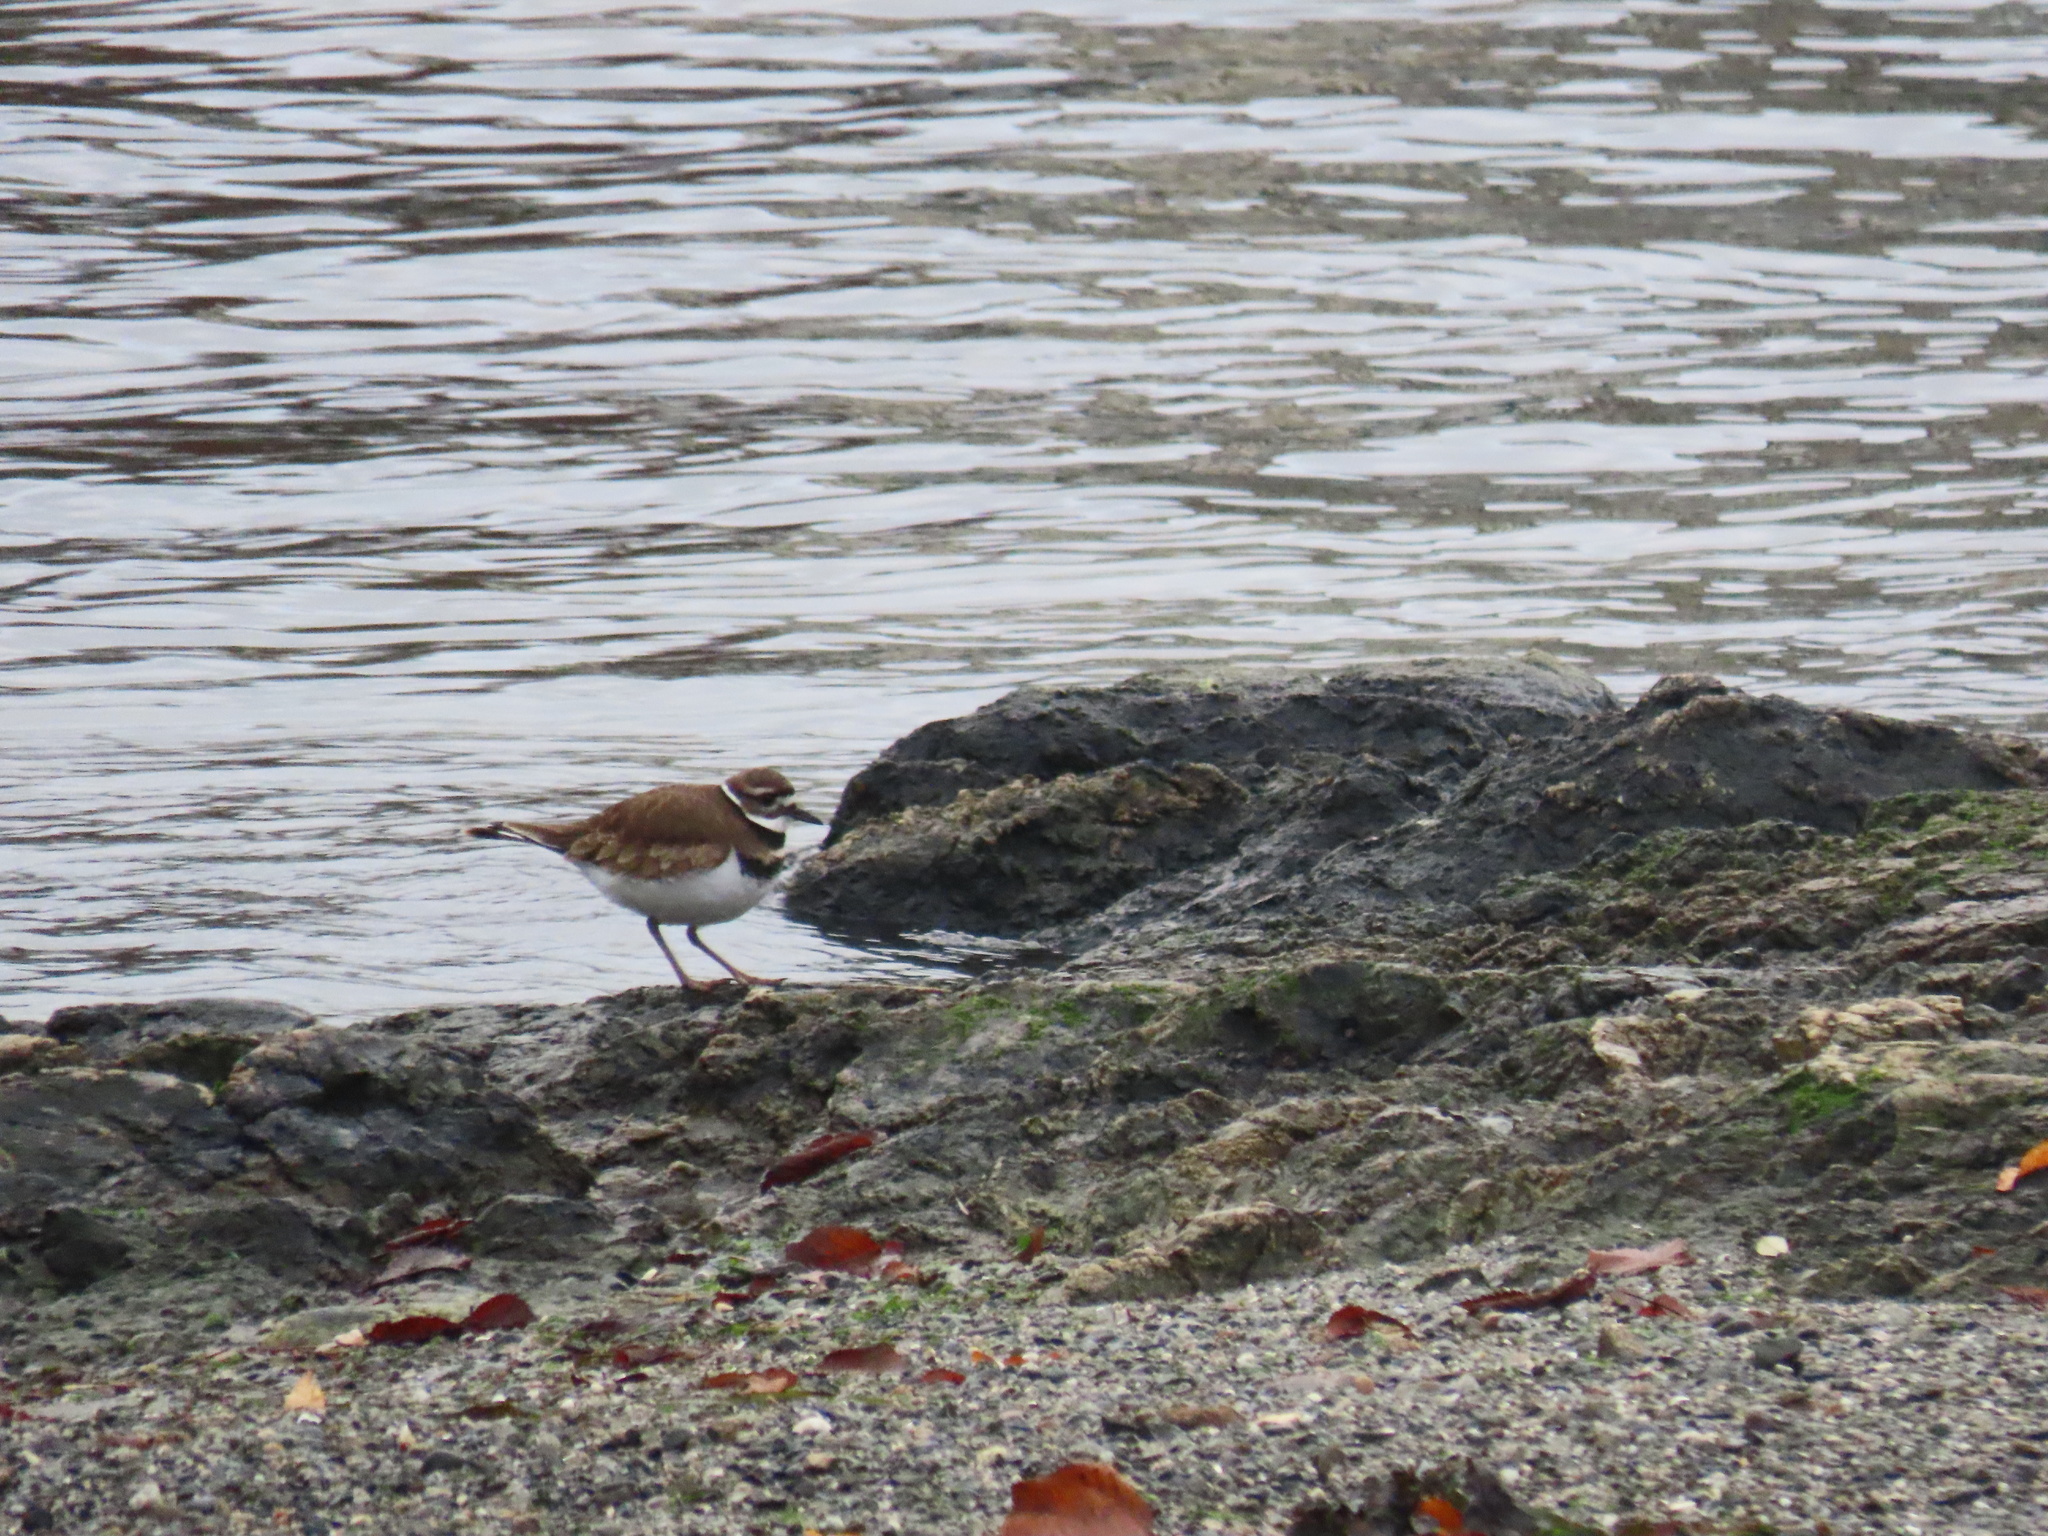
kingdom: Animalia
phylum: Chordata
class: Aves
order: Charadriiformes
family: Charadriidae
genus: Charadrius
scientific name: Charadrius vociferus
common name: Killdeer
